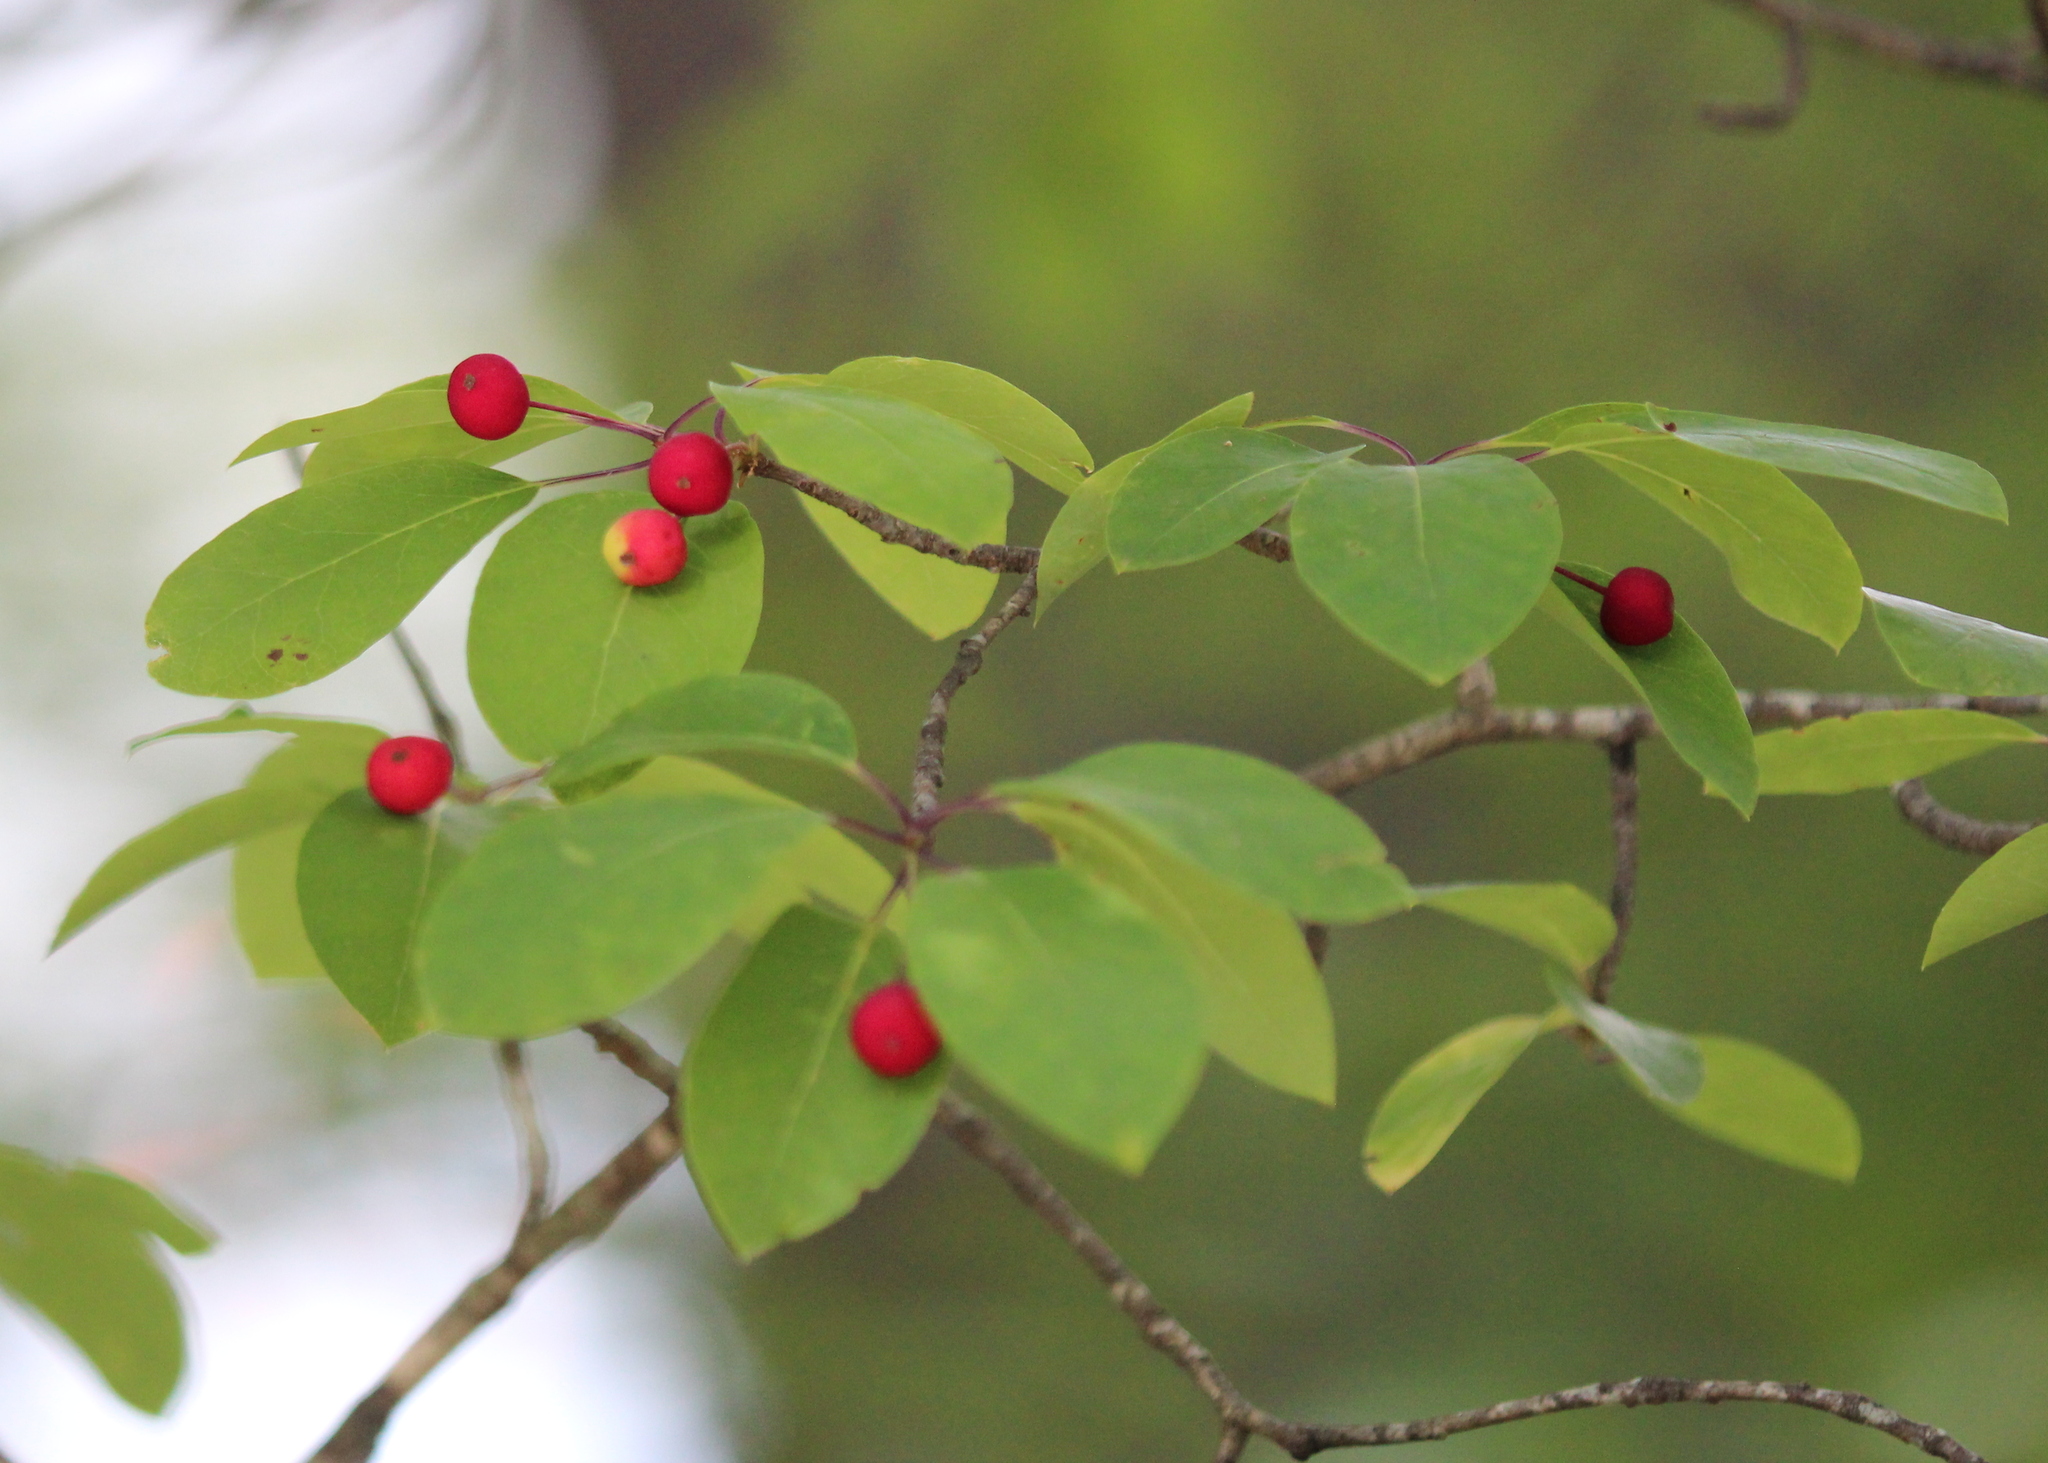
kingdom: Plantae
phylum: Tracheophyta
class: Magnoliopsida
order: Aquifoliales
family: Aquifoliaceae
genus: Ilex
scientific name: Ilex mucronata
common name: Catberry
